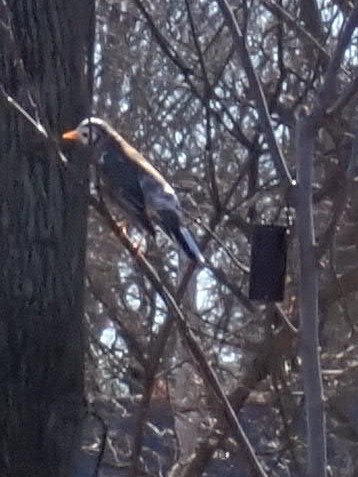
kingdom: Animalia
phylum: Chordata
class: Aves
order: Passeriformes
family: Turdidae
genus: Turdus
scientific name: Turdus migratorius
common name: American robin
